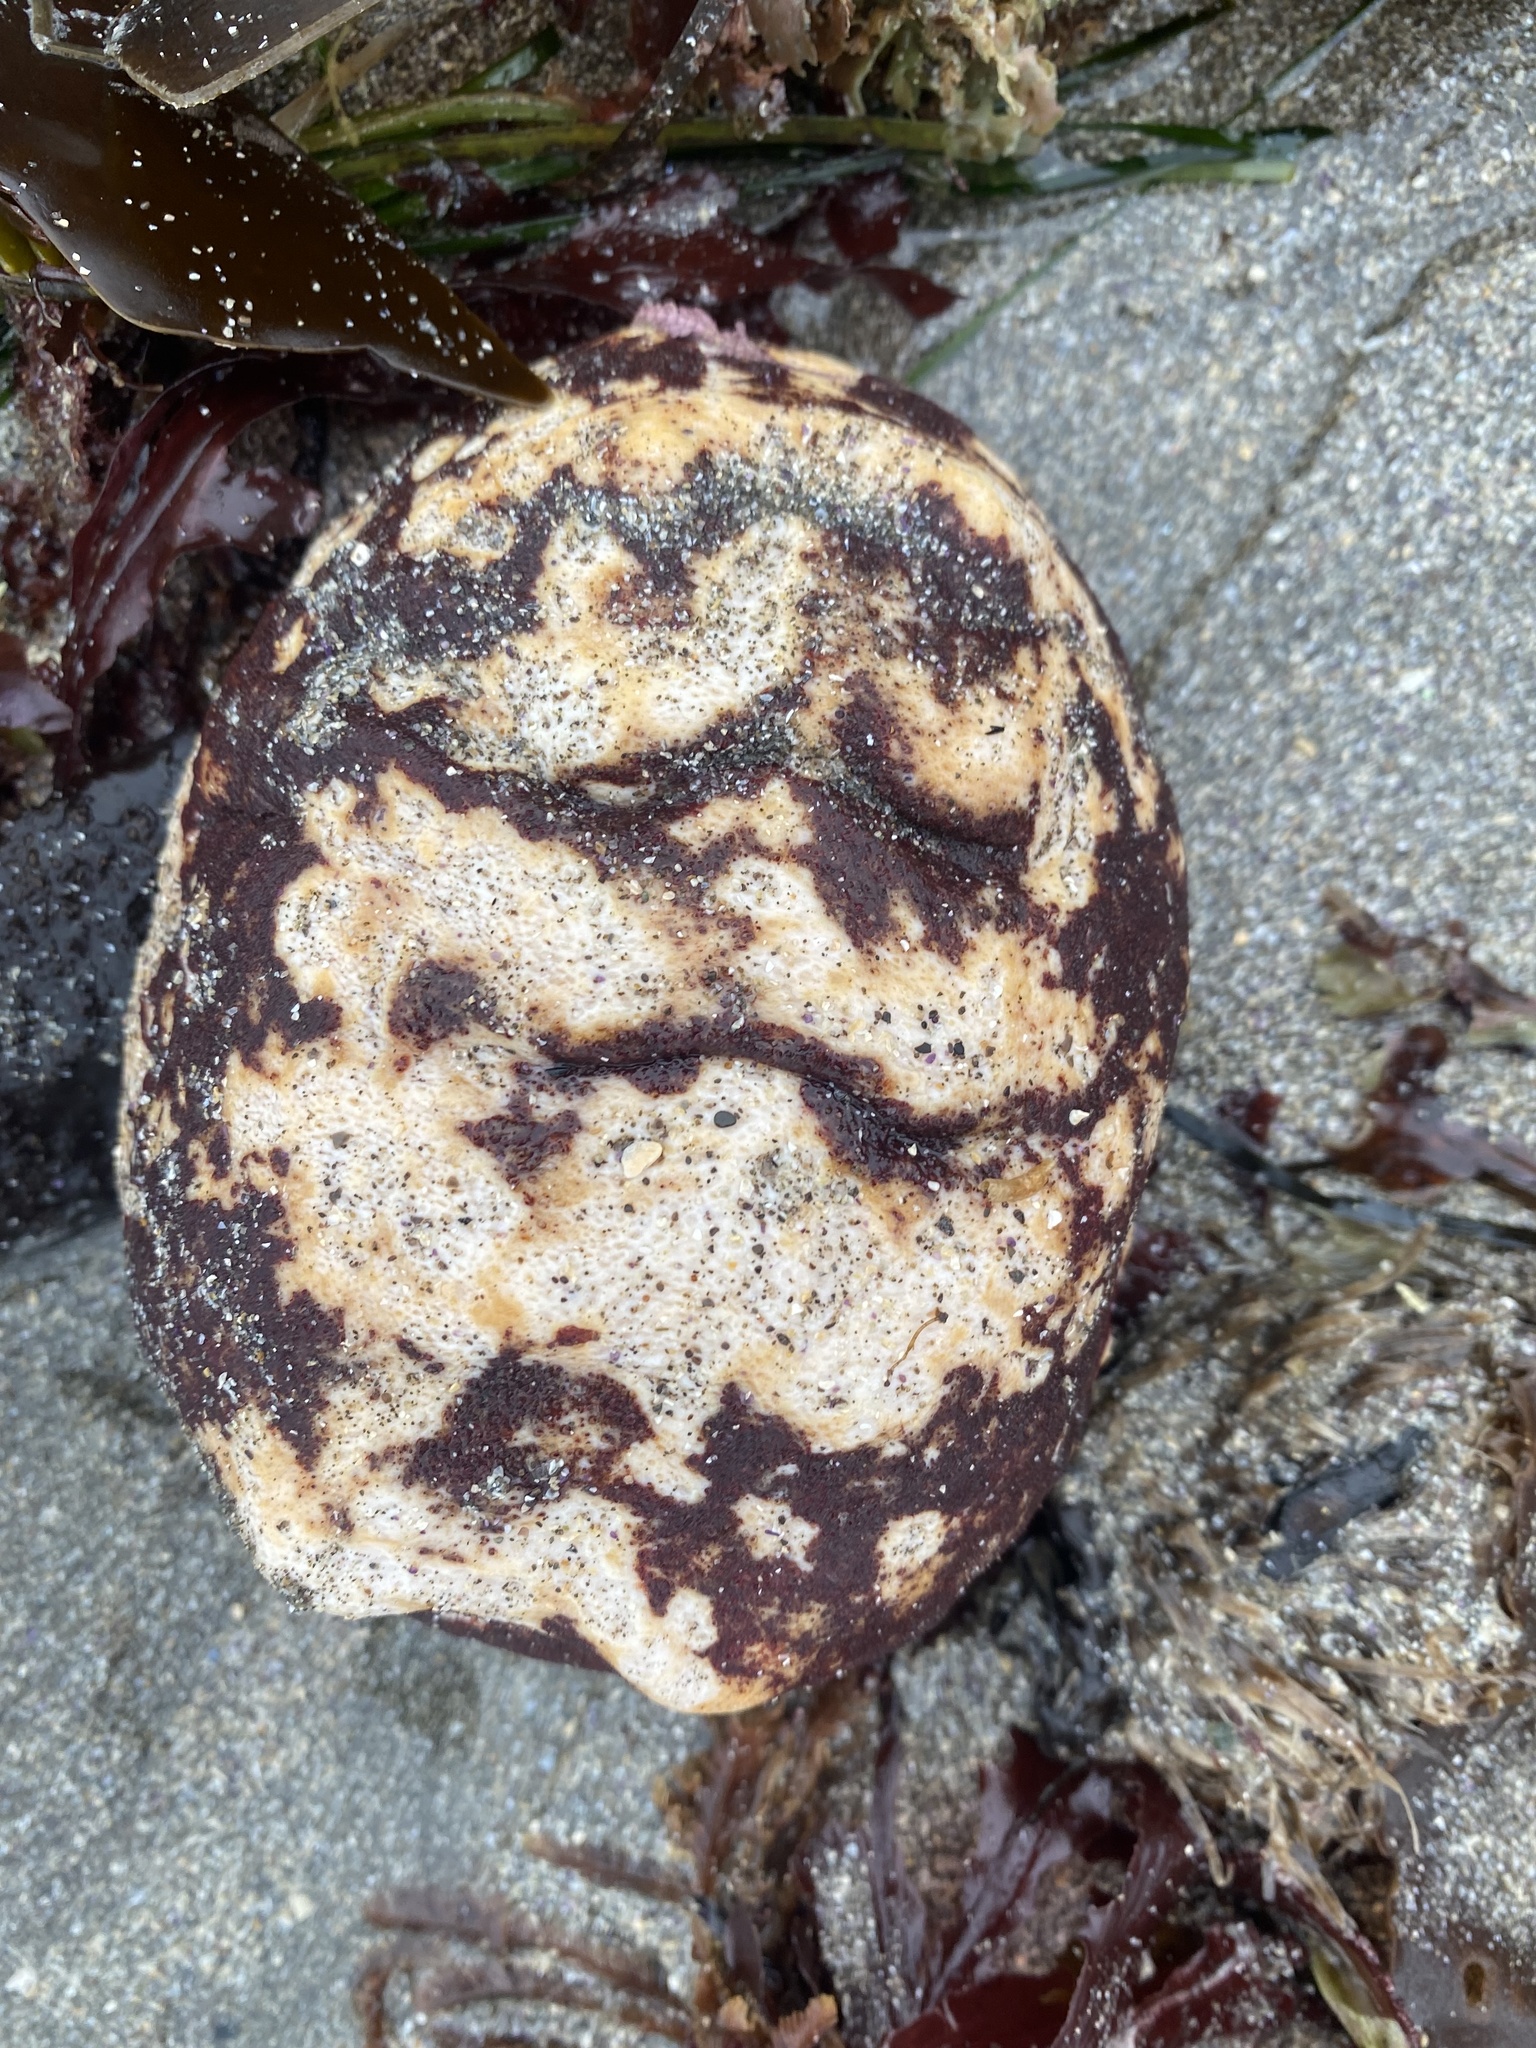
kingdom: Animalia
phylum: Mollusca
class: Polyplacophora
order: Chitonida
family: Acanthochitonidae
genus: Cryptochiton
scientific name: Cryptochiton stelleri
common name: Giant pacific chiton
